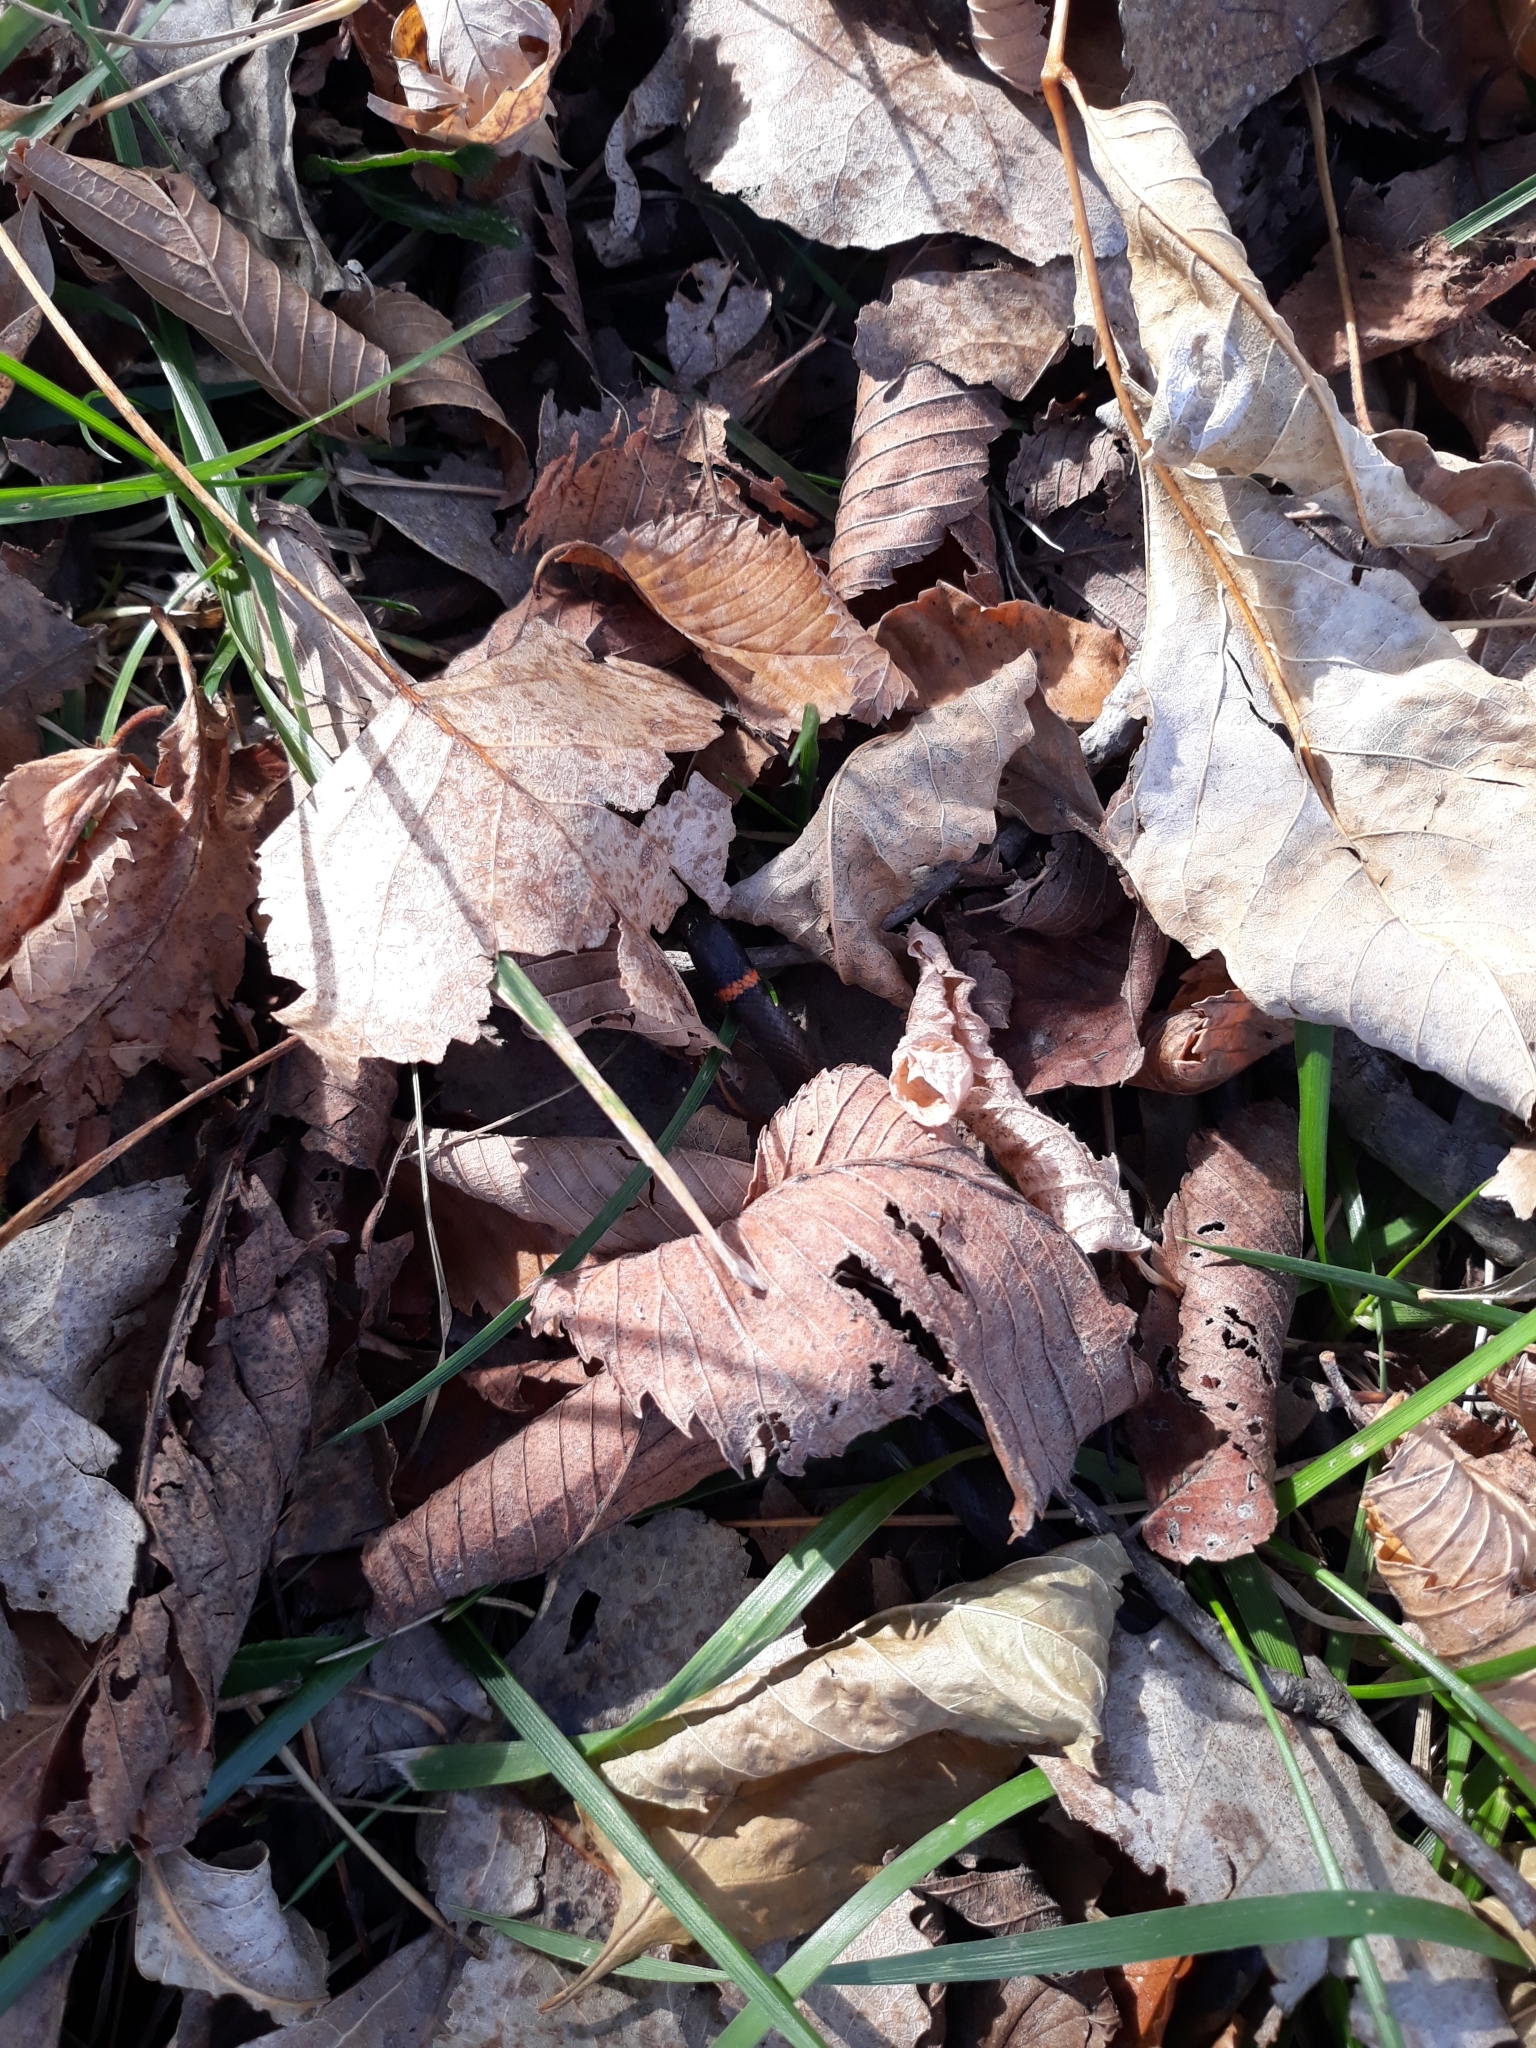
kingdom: Animalia
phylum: Chordata
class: Squamata
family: Colubridae
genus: Diadophis
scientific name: Diadophis punctatus
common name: Ringneck snake
